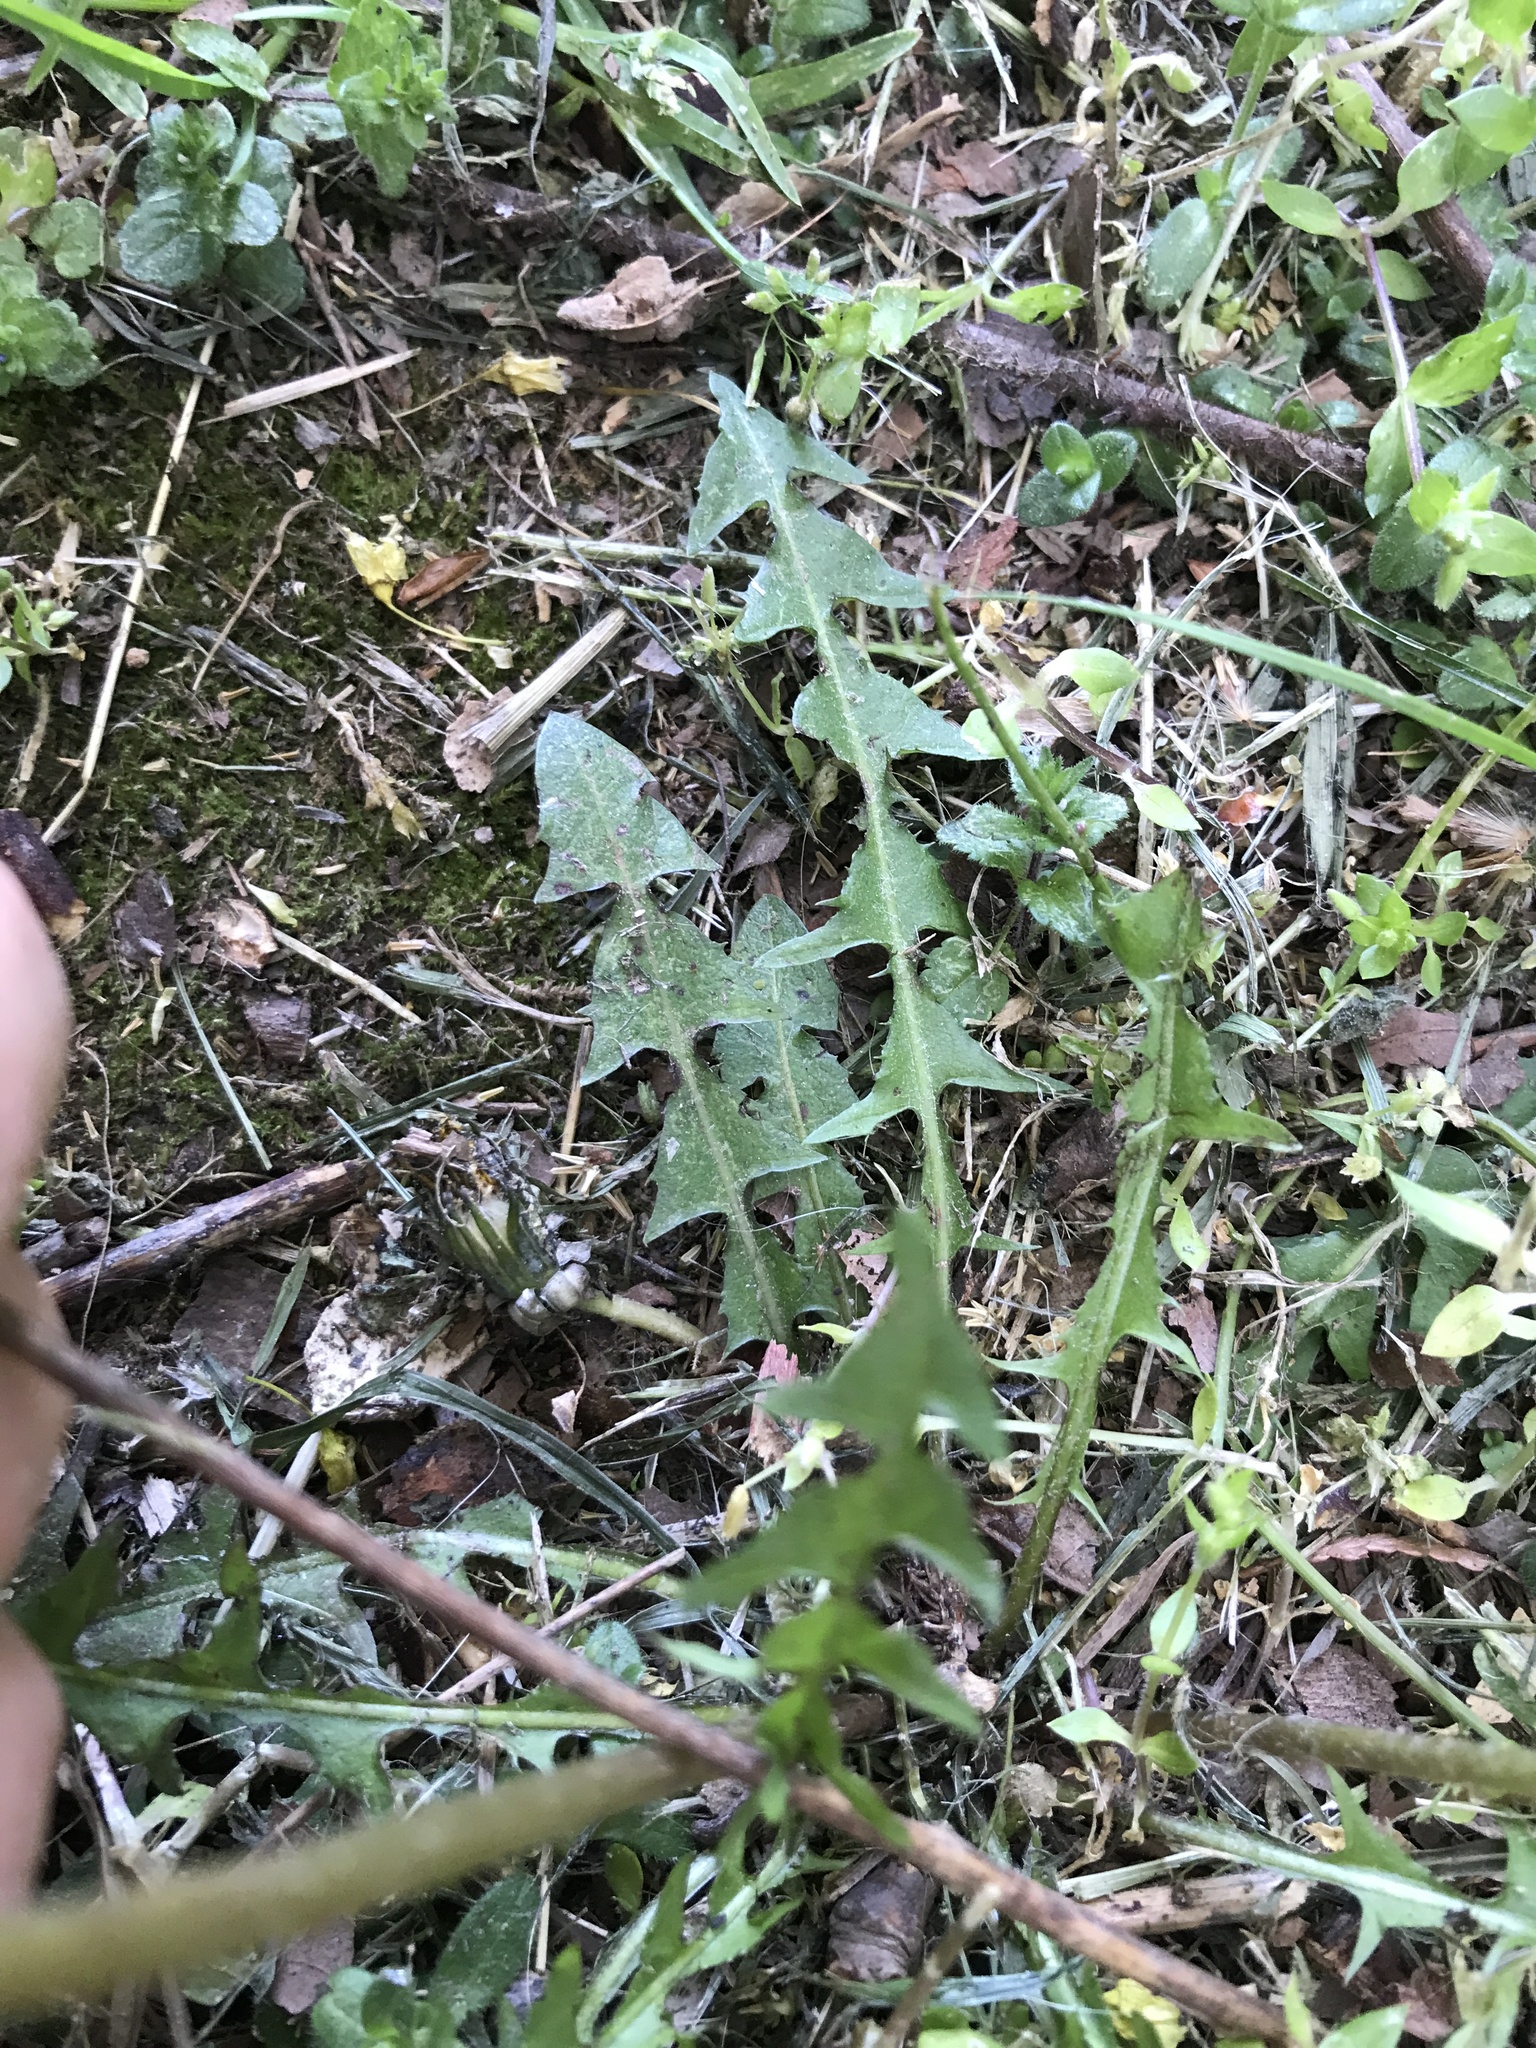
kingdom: Plantae
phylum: Tracheophyta
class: Magnoliopsida
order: Asterales
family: Asteraceae
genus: Taraxacum
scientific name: Taraxacum erythrospermum
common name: Rock dandelion
